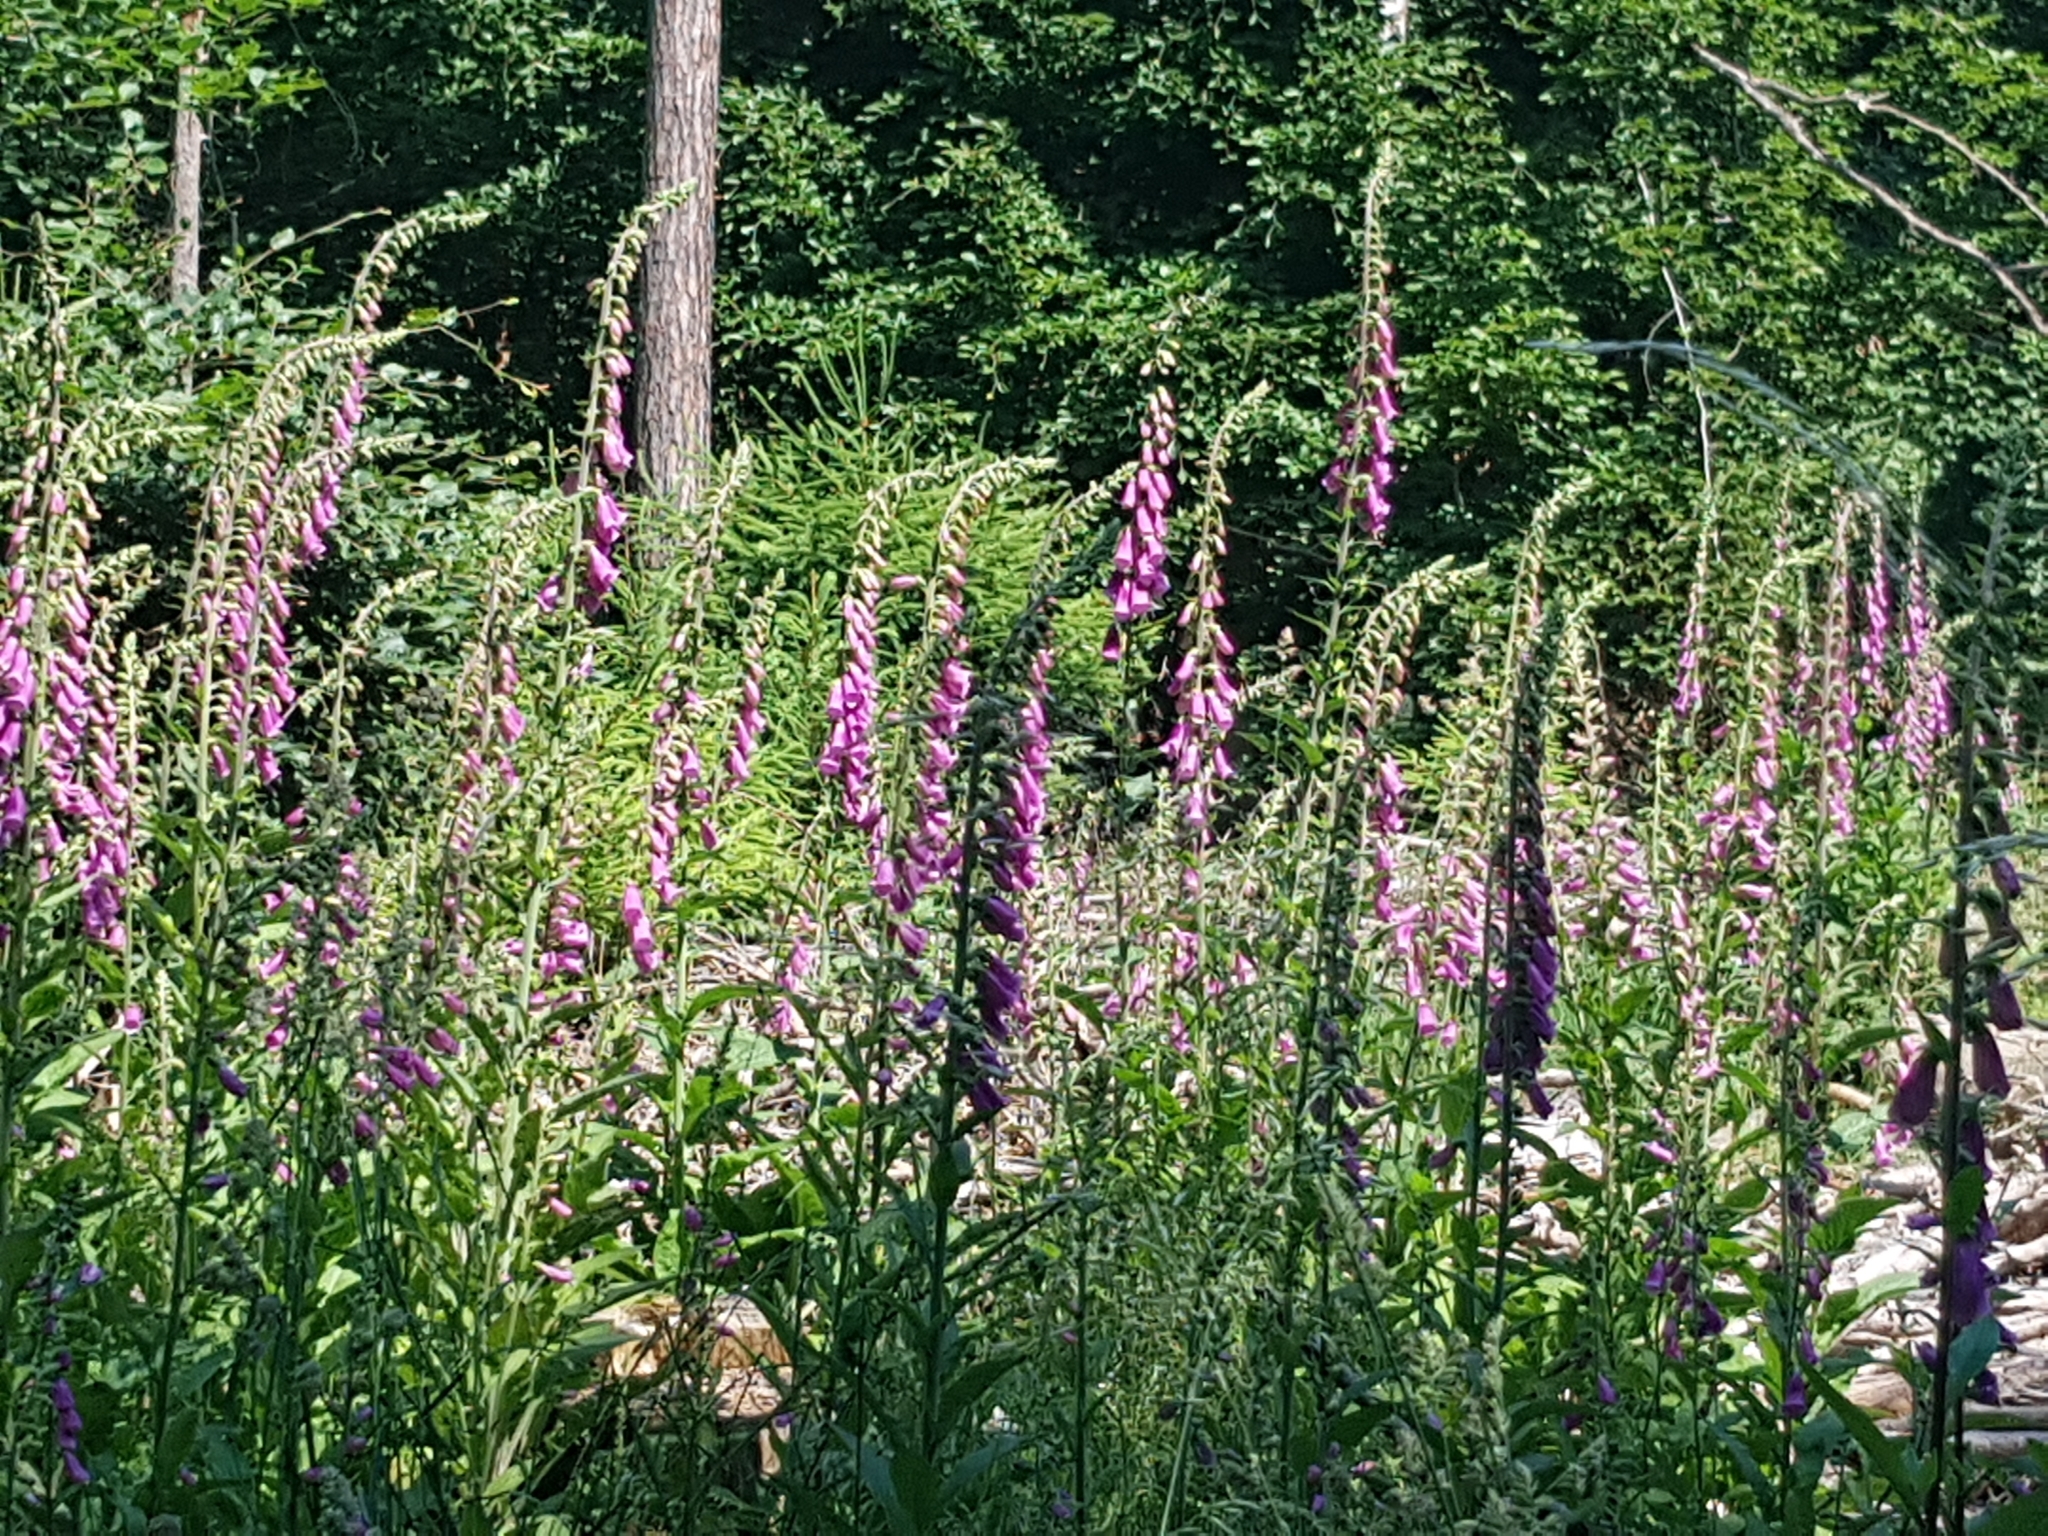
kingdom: Plantae
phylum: Tracheophyta
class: Magnoliopsida
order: Lamiales
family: Plantaginaceae
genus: Digitalis
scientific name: Digitalis purpurea
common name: Foxglove
